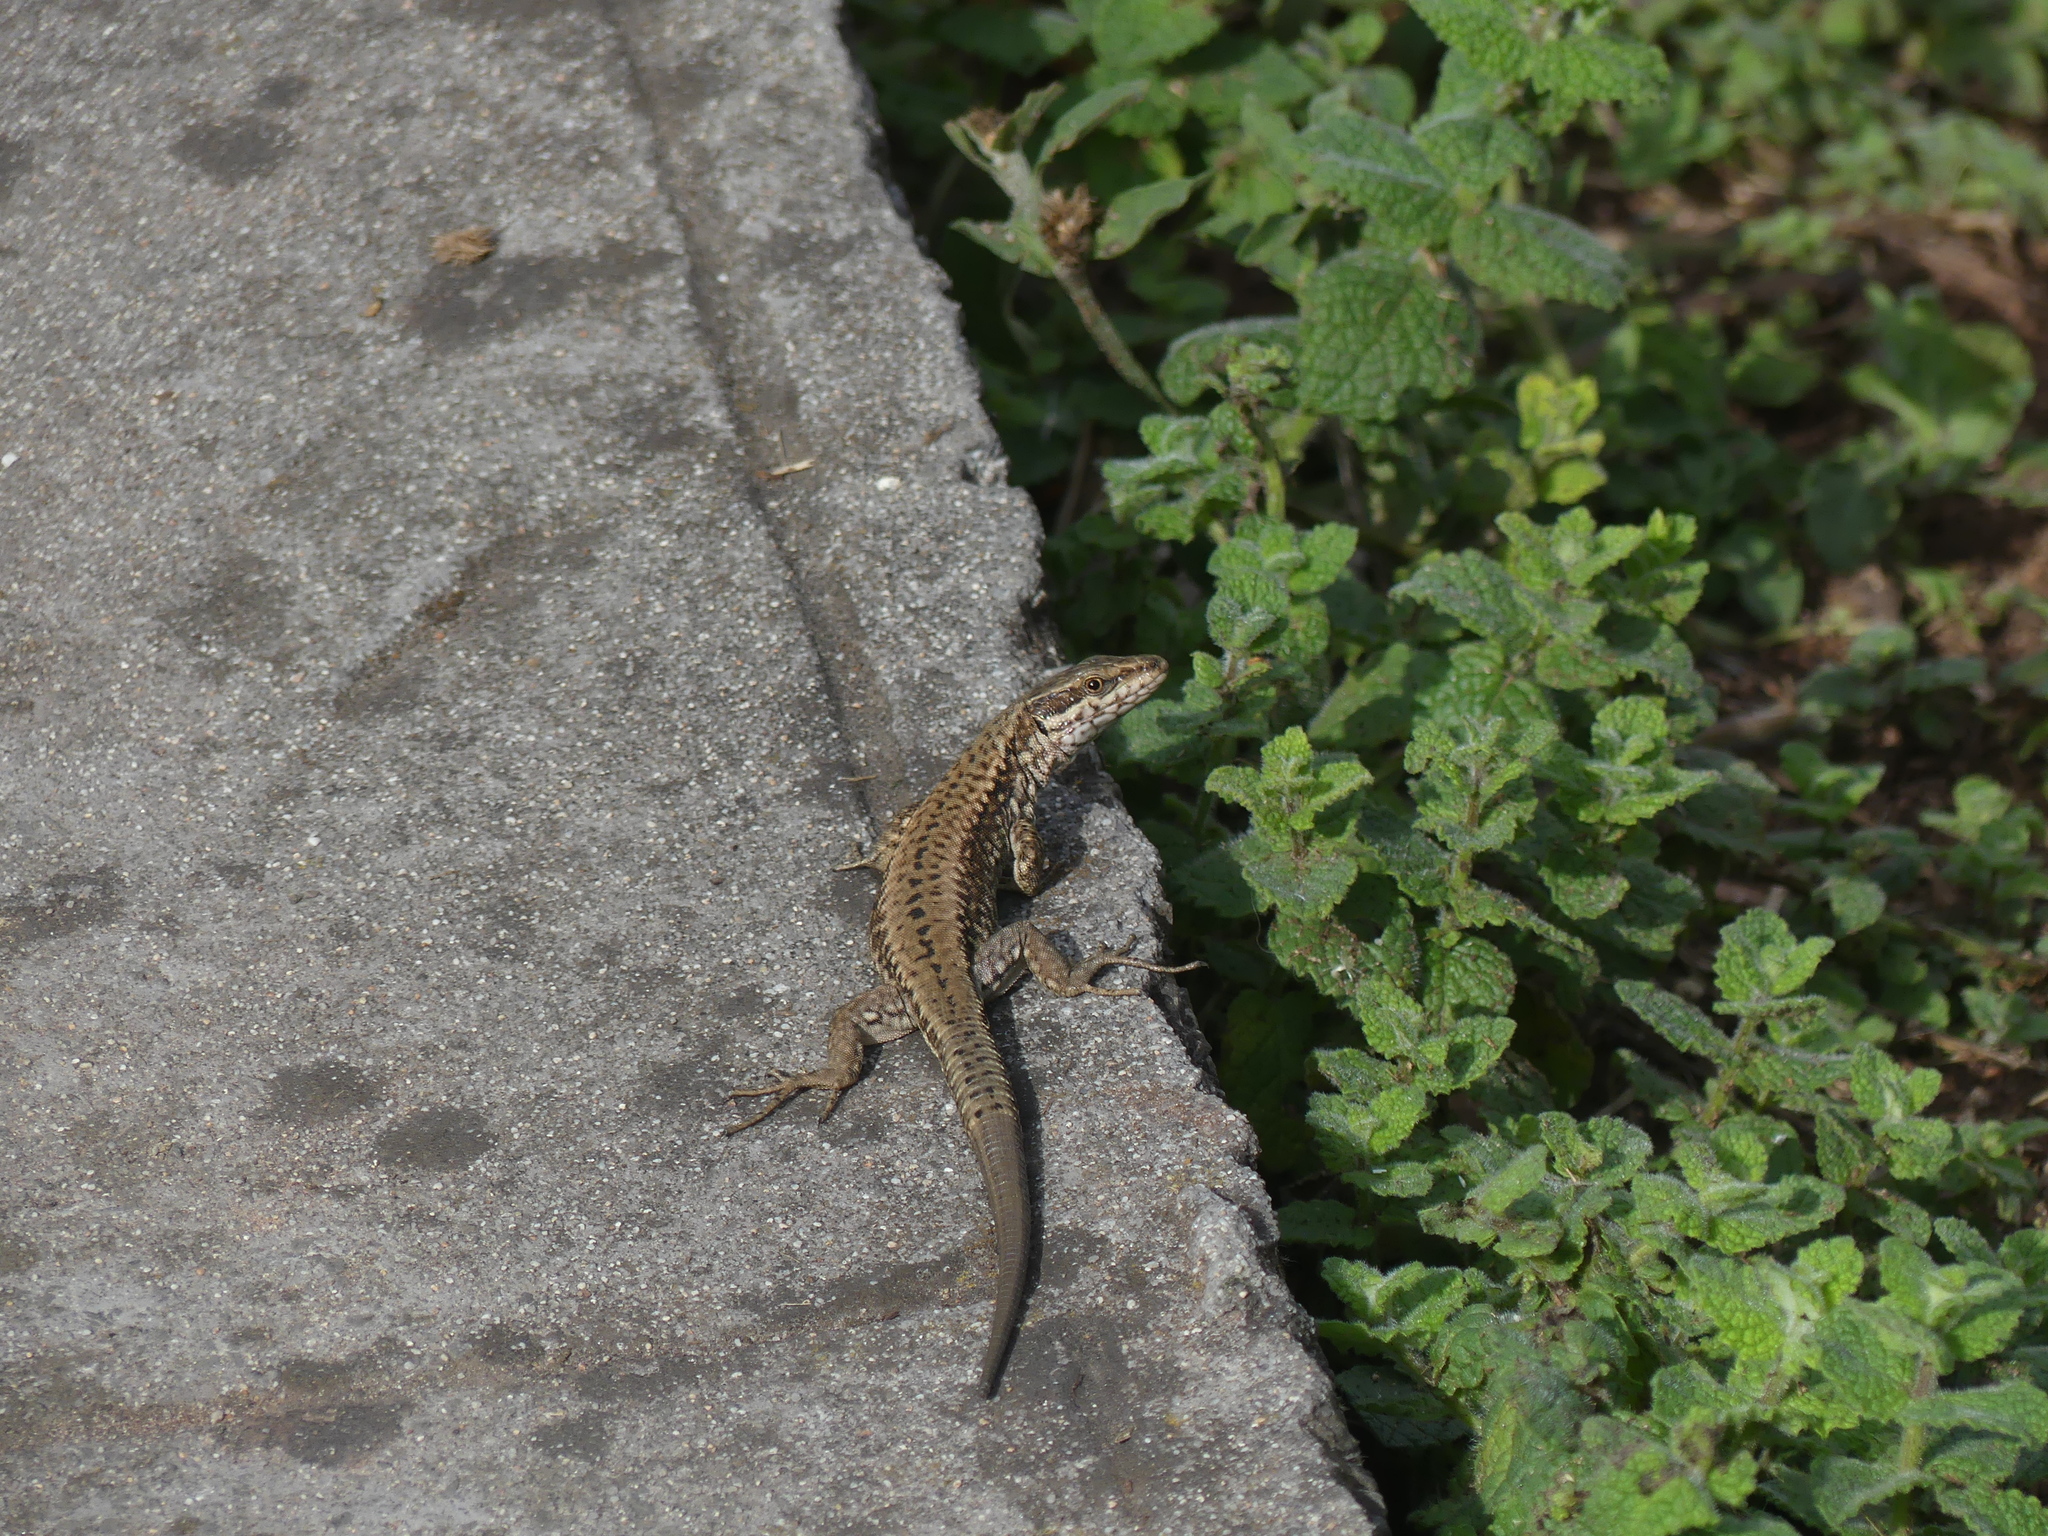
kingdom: Animalia
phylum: Chordata
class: Squamata
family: Lacertidae
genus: Podarcis
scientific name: Podarcis muralis
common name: Common wall lizard
